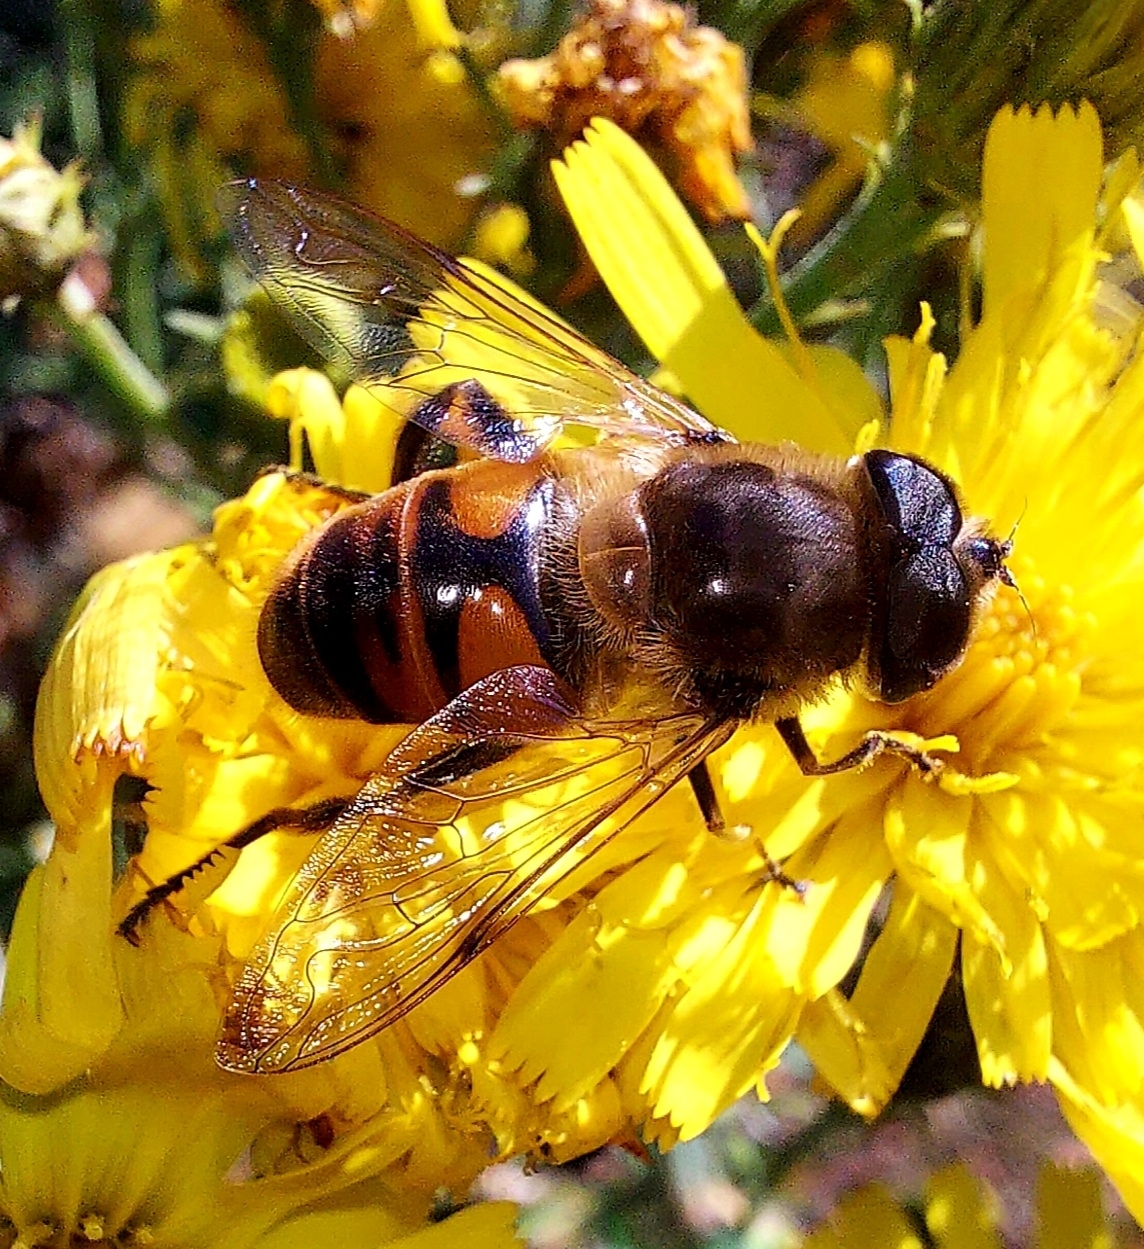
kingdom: Animalia
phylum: Arthropoda
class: Insecta
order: Diptera
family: Syrphidae
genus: Eristalis
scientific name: Eristalis tenax
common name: Drone fly
